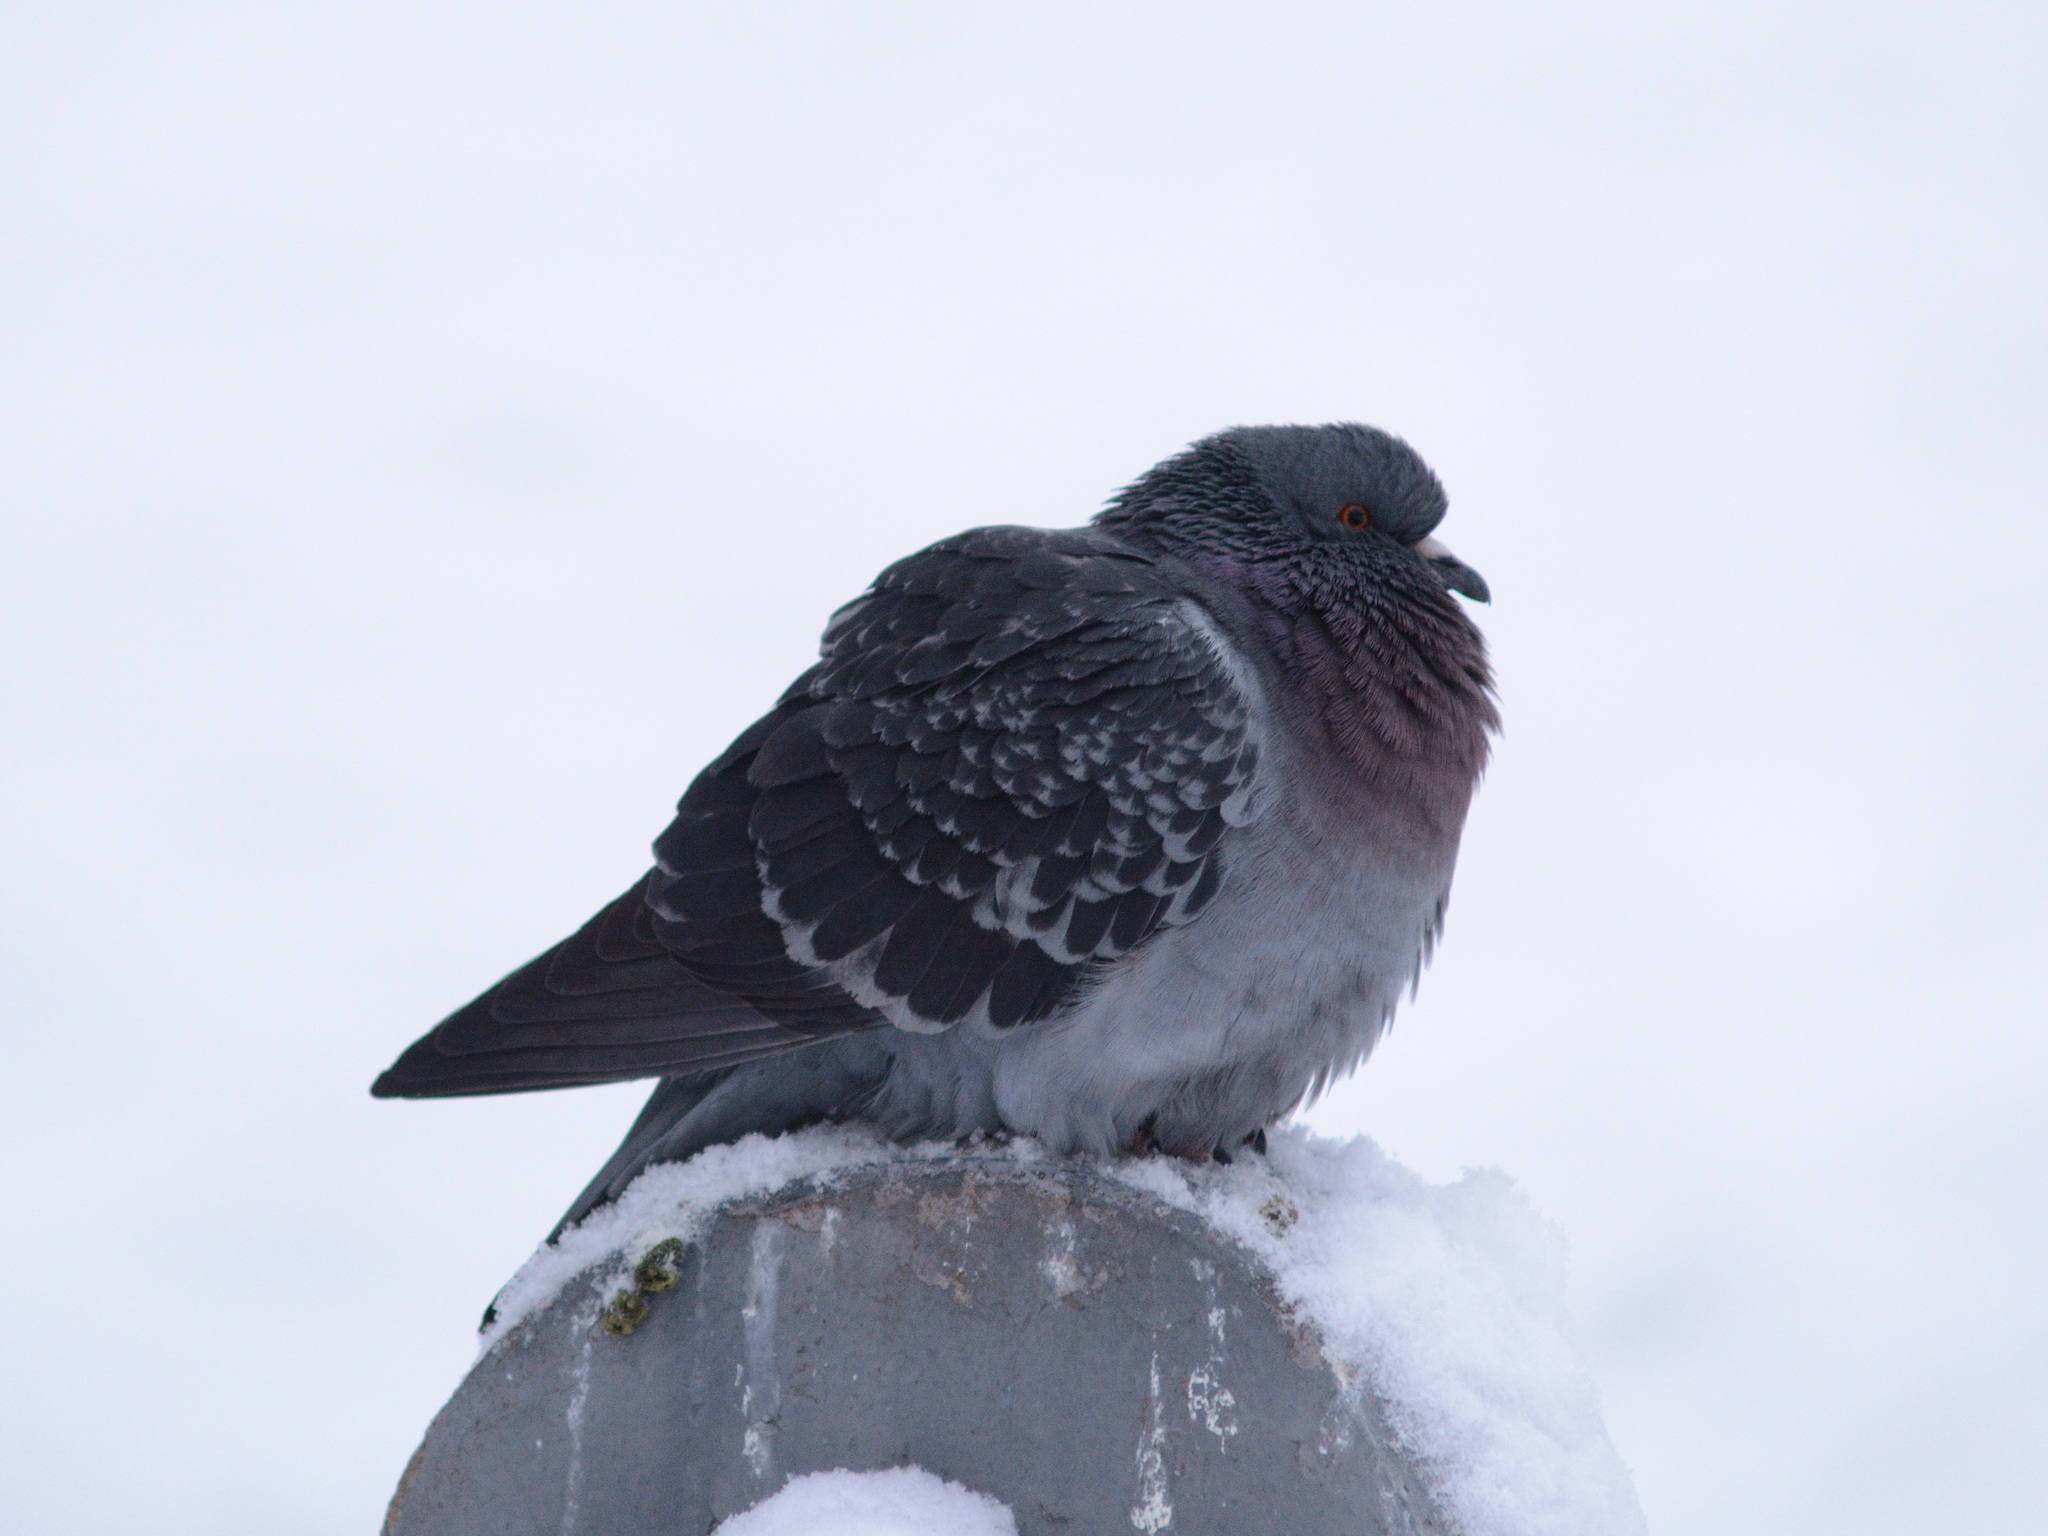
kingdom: Animalia
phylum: Chordata
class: Aves
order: Columbiformes
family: Columbidae
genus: Columba
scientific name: Columba livia
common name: Rock pigeon
